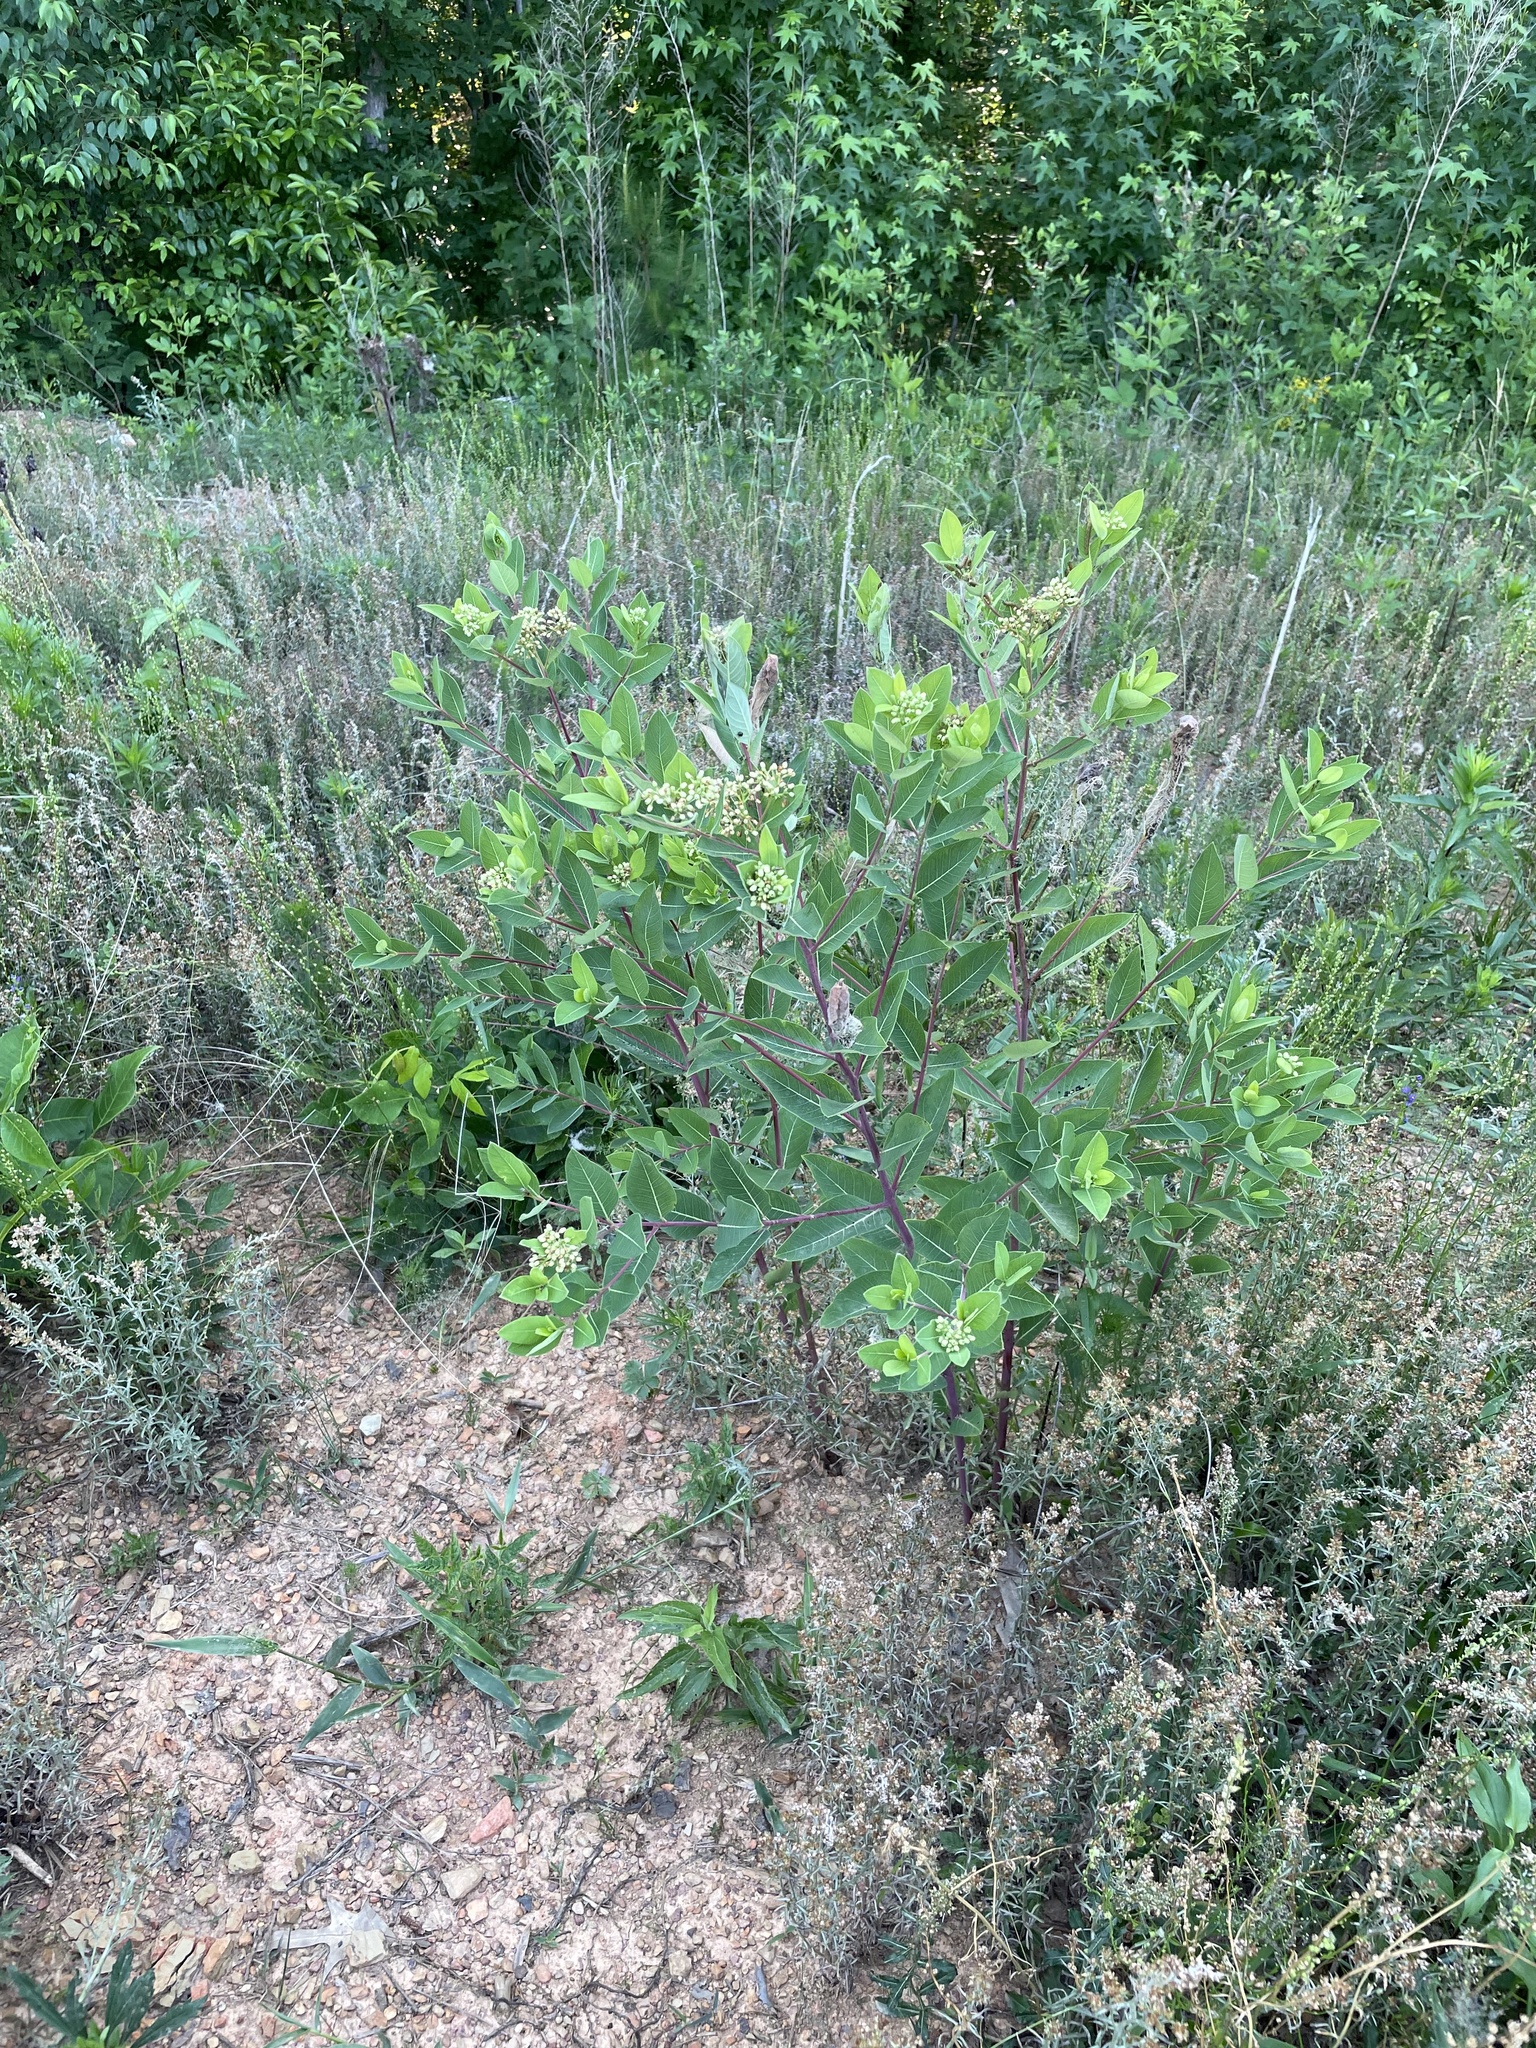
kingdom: Plantae
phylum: Tracheophyta
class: Magnoliopsida
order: Gentianales
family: Apocynaceae
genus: Apocynum
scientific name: Apocynum cannabinum
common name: Hemp dogbane
